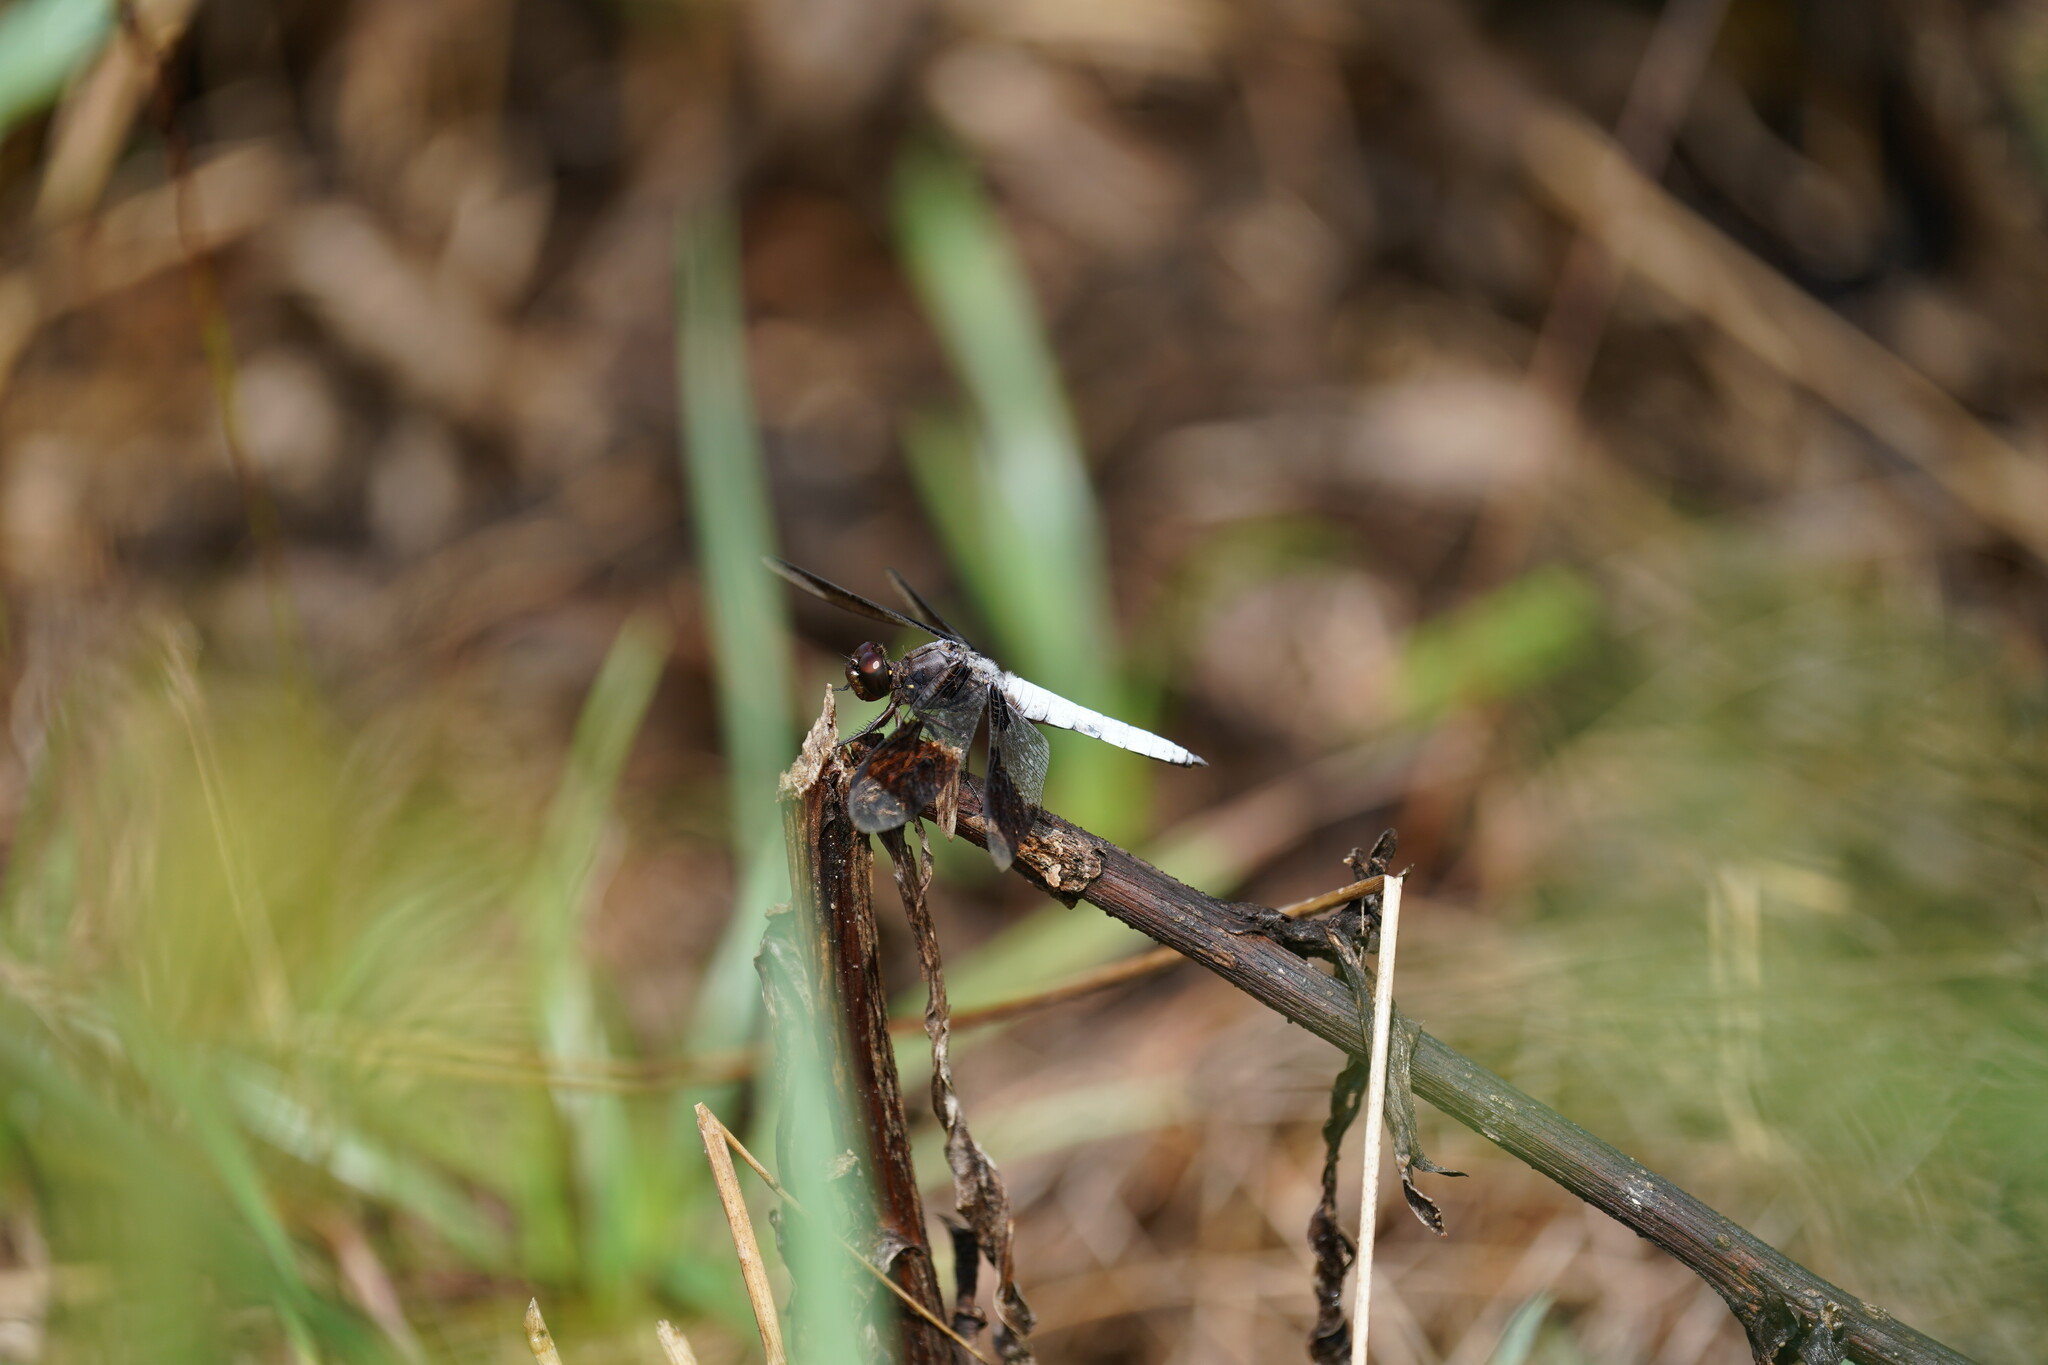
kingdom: Animalia
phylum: Arthropoda
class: Insecta
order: Odonata
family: Libellulidae
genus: Plathemis
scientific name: Plathemis lydia
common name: Common whitetail
